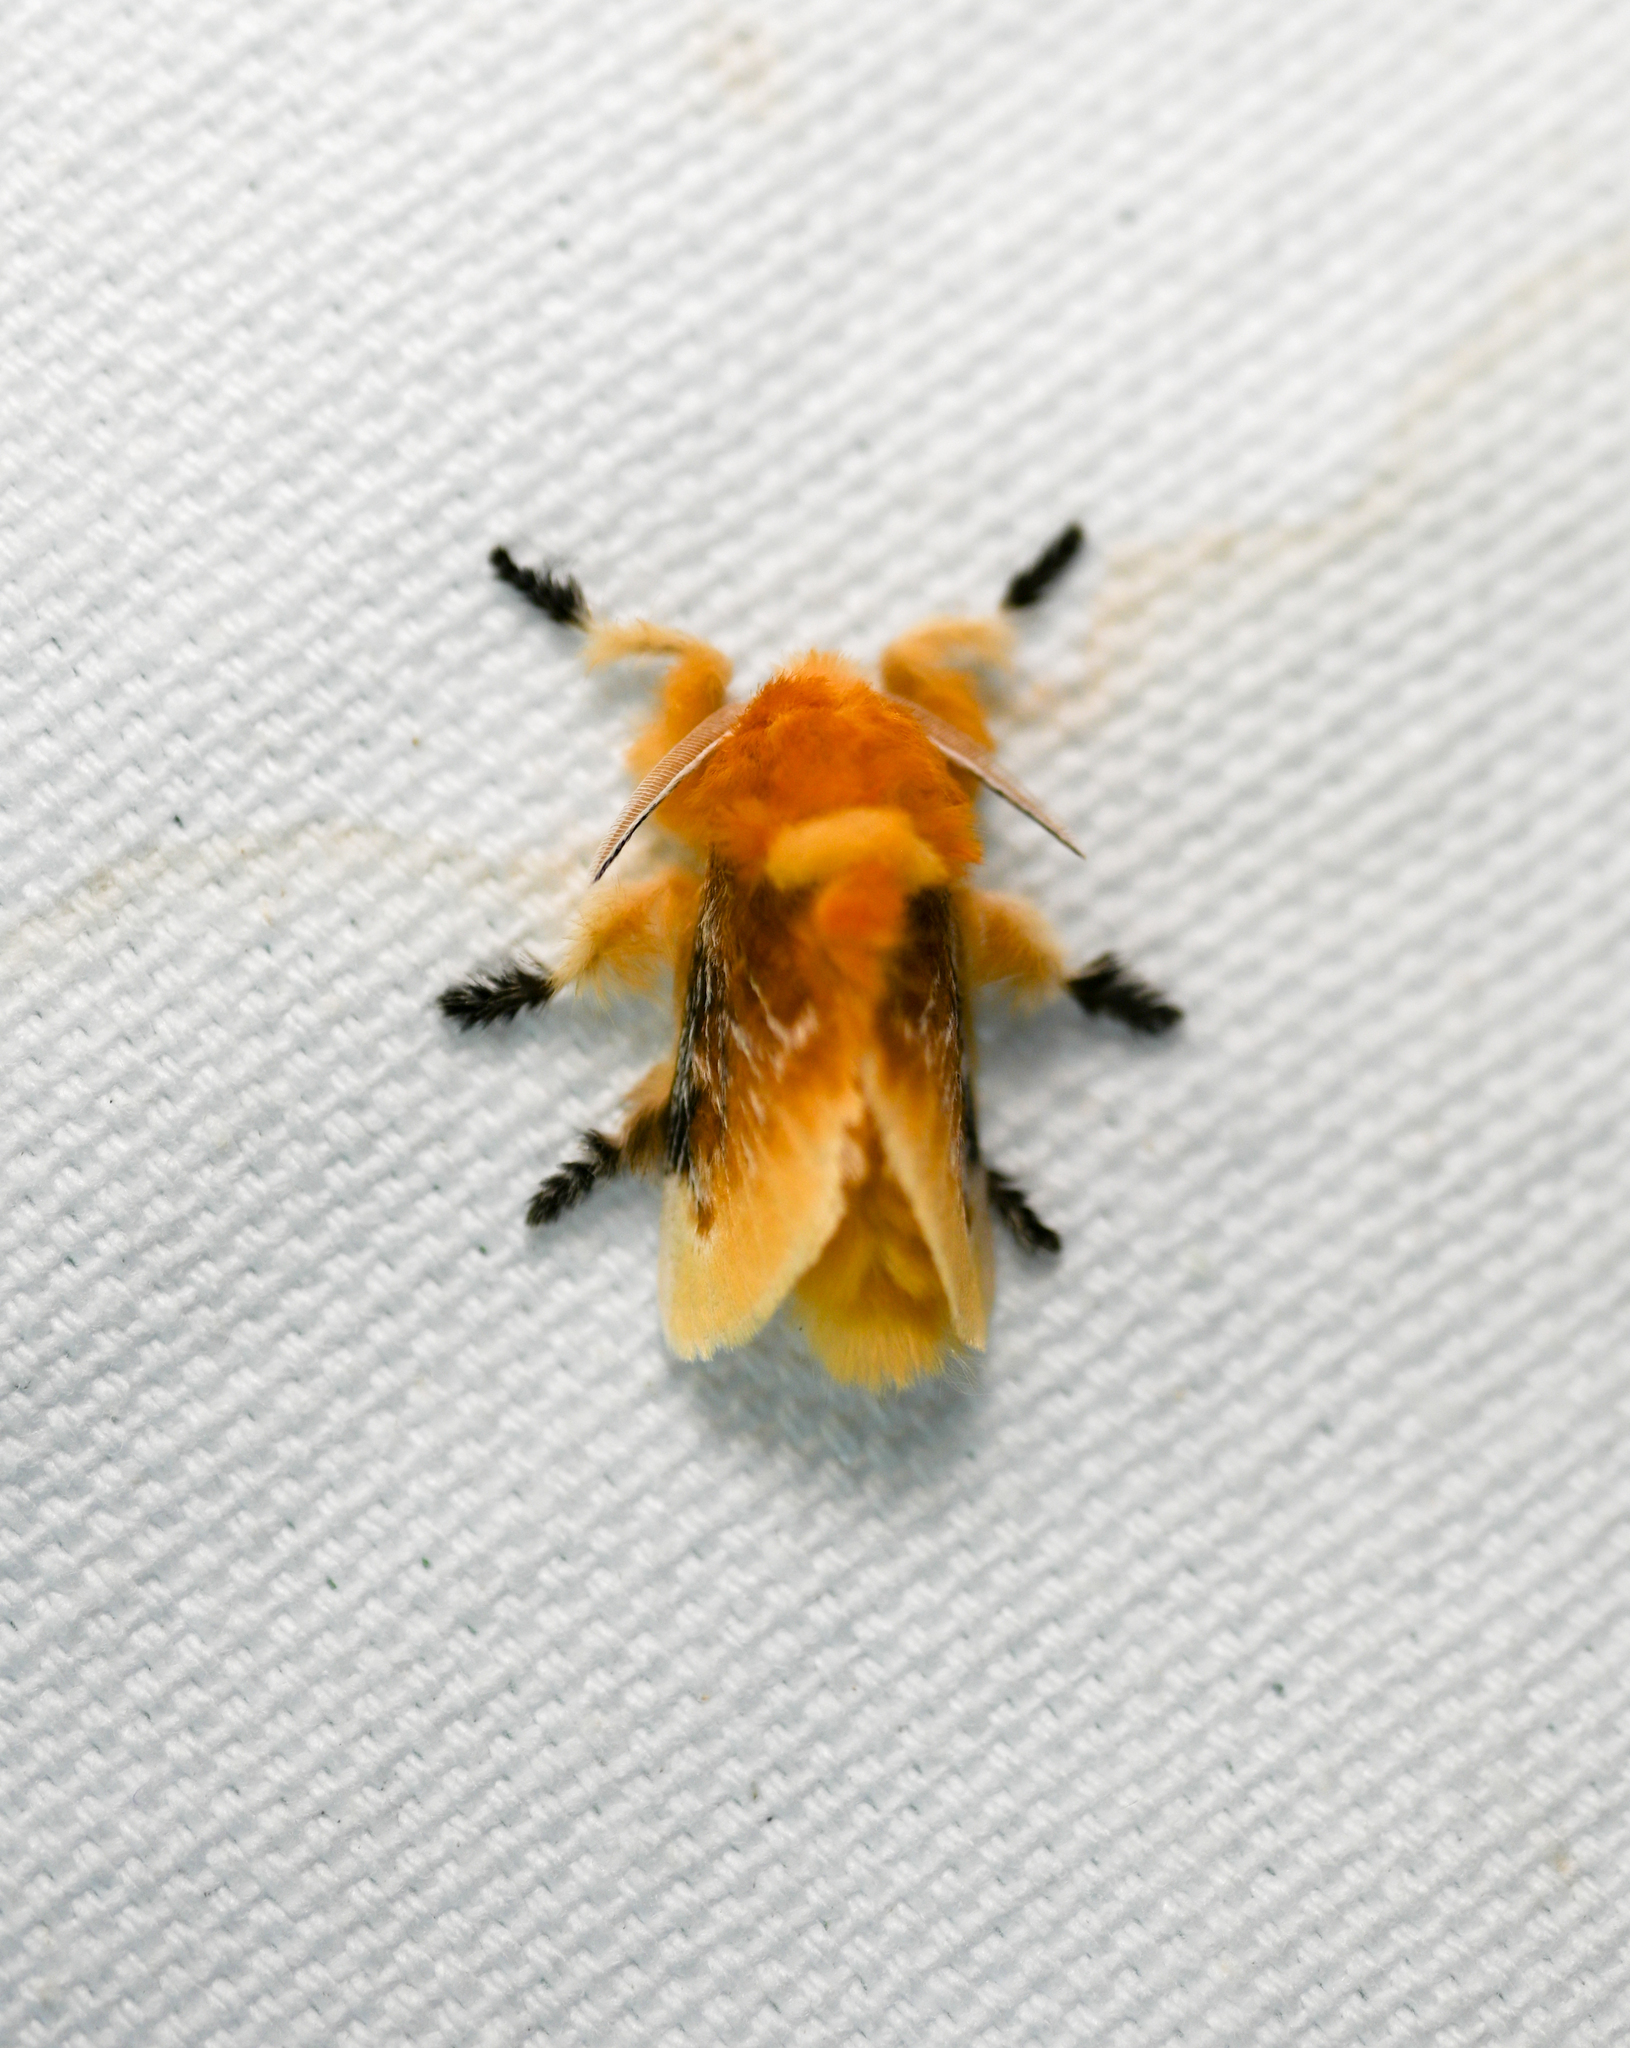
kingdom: Animalia
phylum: Arthropoda
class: Insecta
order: Lepidoptera
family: Megalopygidae
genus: Megalopyge
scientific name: Megalopyge opercularis
